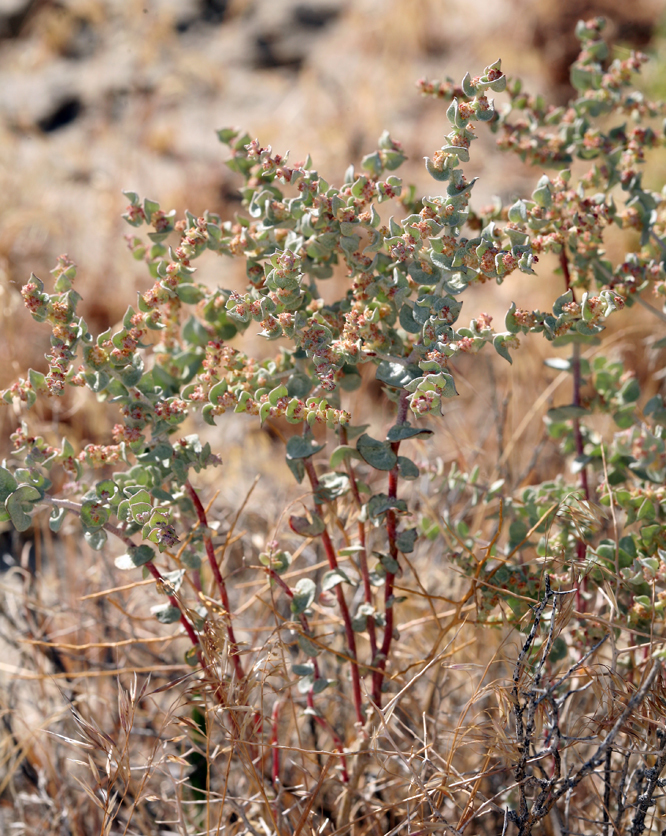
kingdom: Plantae
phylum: Tracheophyta
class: Magnoliopsida
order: Caryophyllales
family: Amaranthaceae
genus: Atriplex
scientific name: Atriplex parryi
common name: Parry's saltbush
